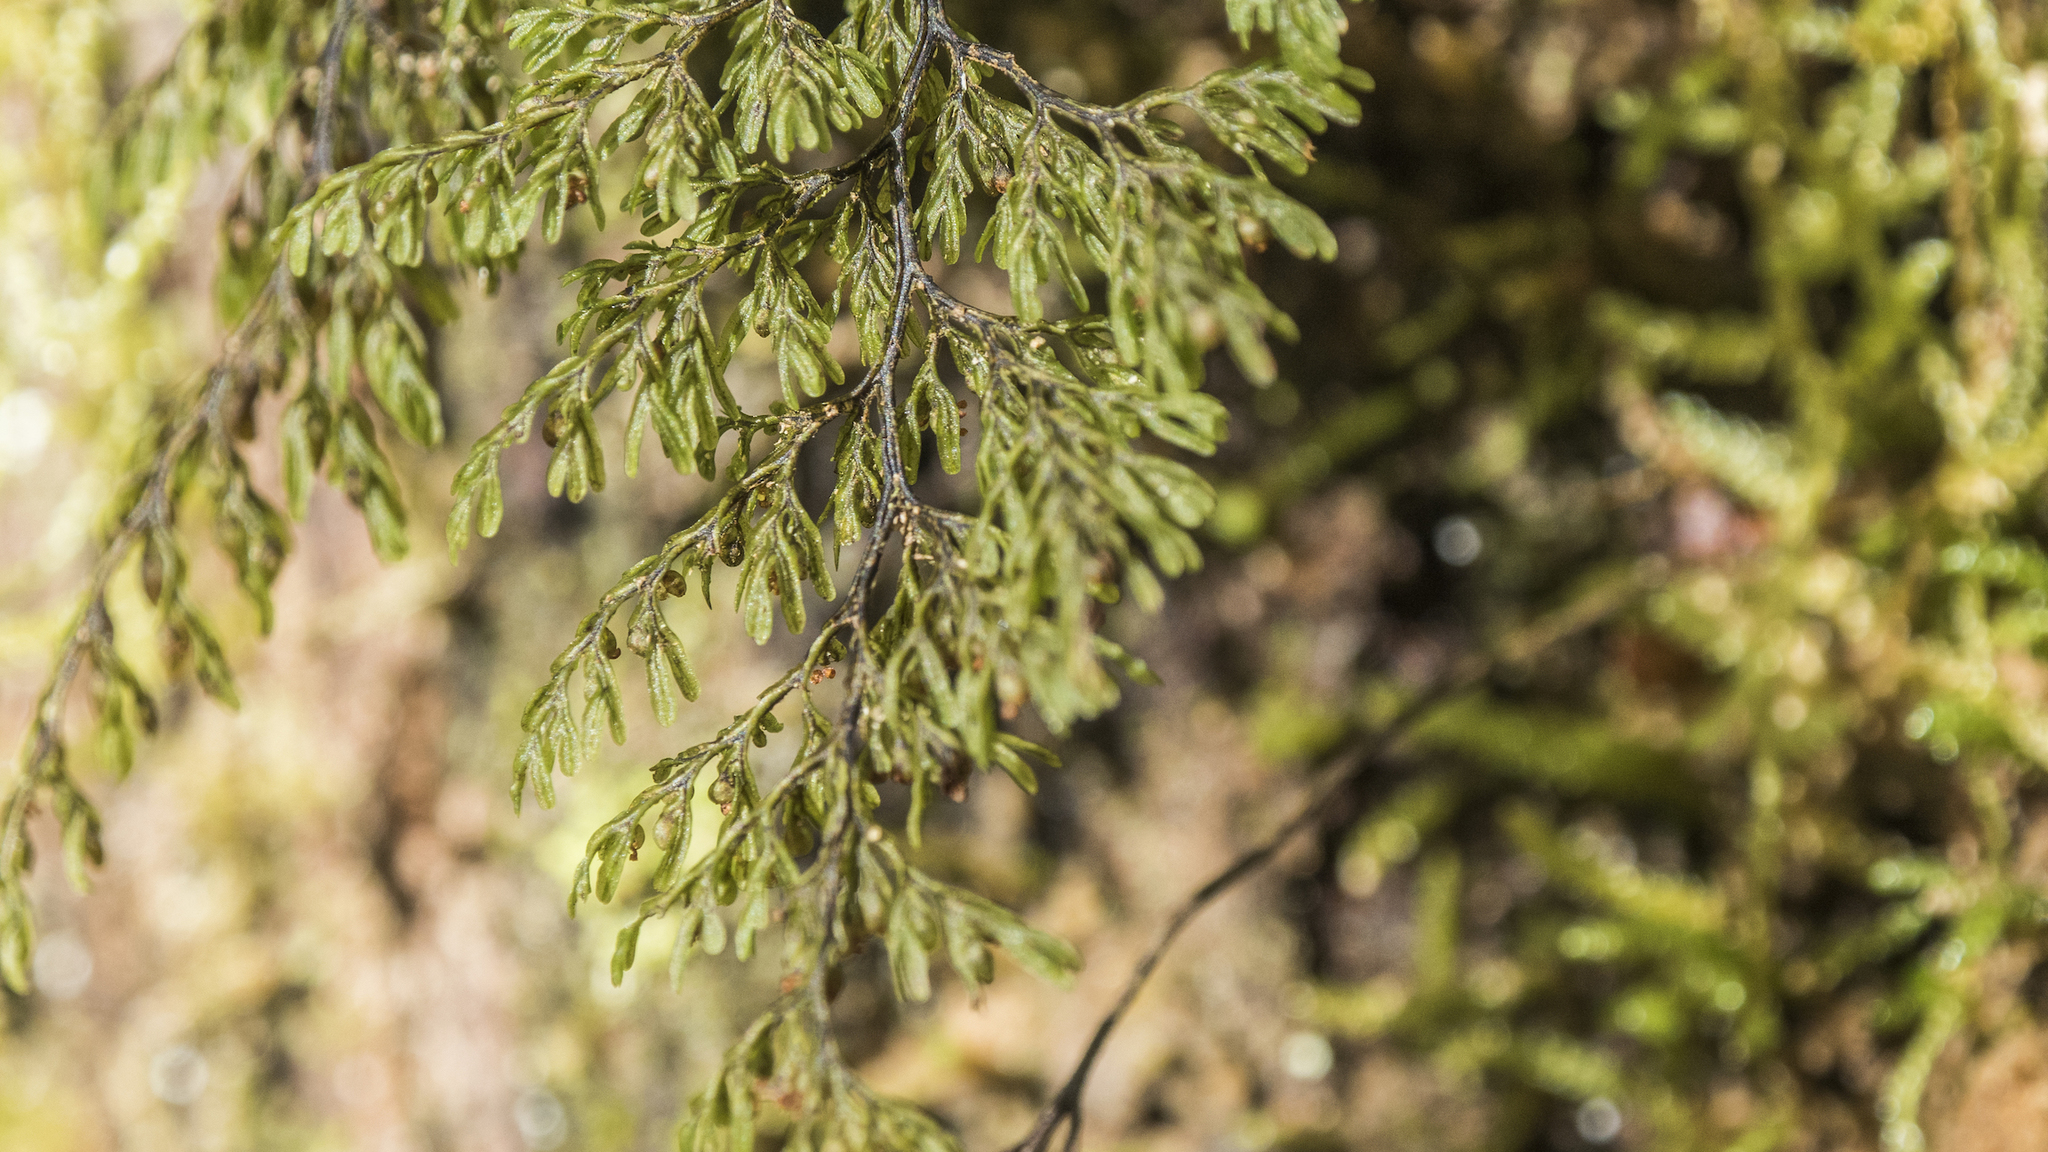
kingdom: Plantae
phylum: Tracheophyta
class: Polypodiopsida
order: Hymenophyllales
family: Hymenophyllaceae
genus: Hymenophyllum
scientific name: Hymenophyllum villosum
